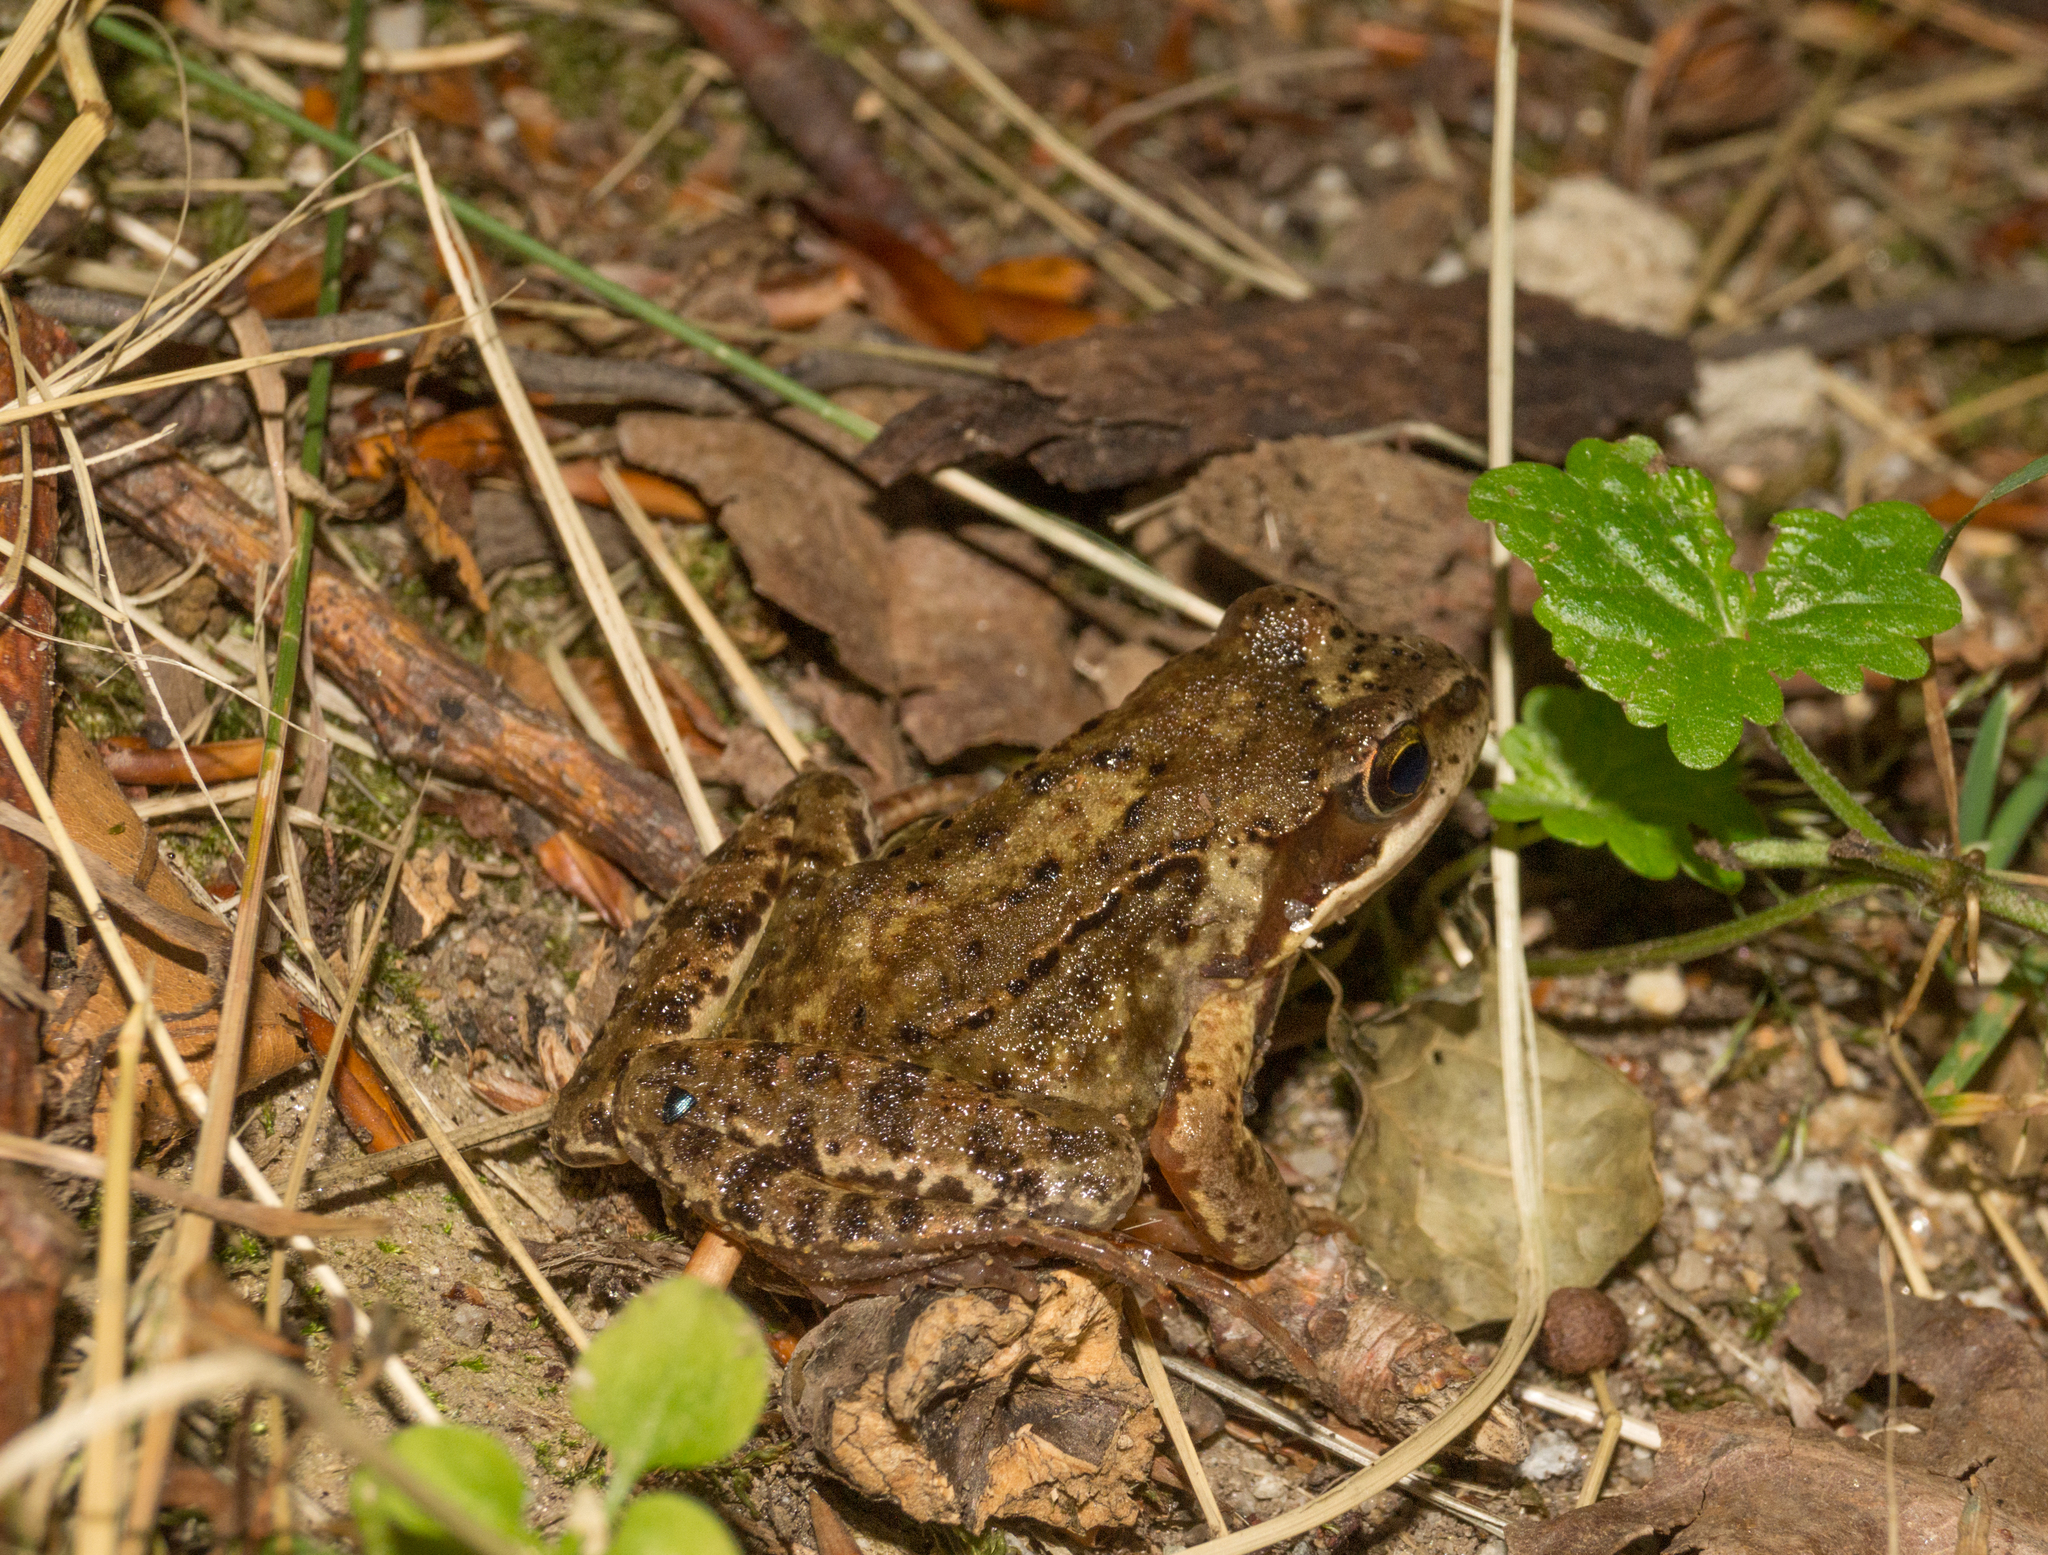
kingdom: Animalia
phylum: Chordata
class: Amphibia
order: Anura
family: Ranidae
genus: Rana
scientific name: Rana temporaria
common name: Common frog
